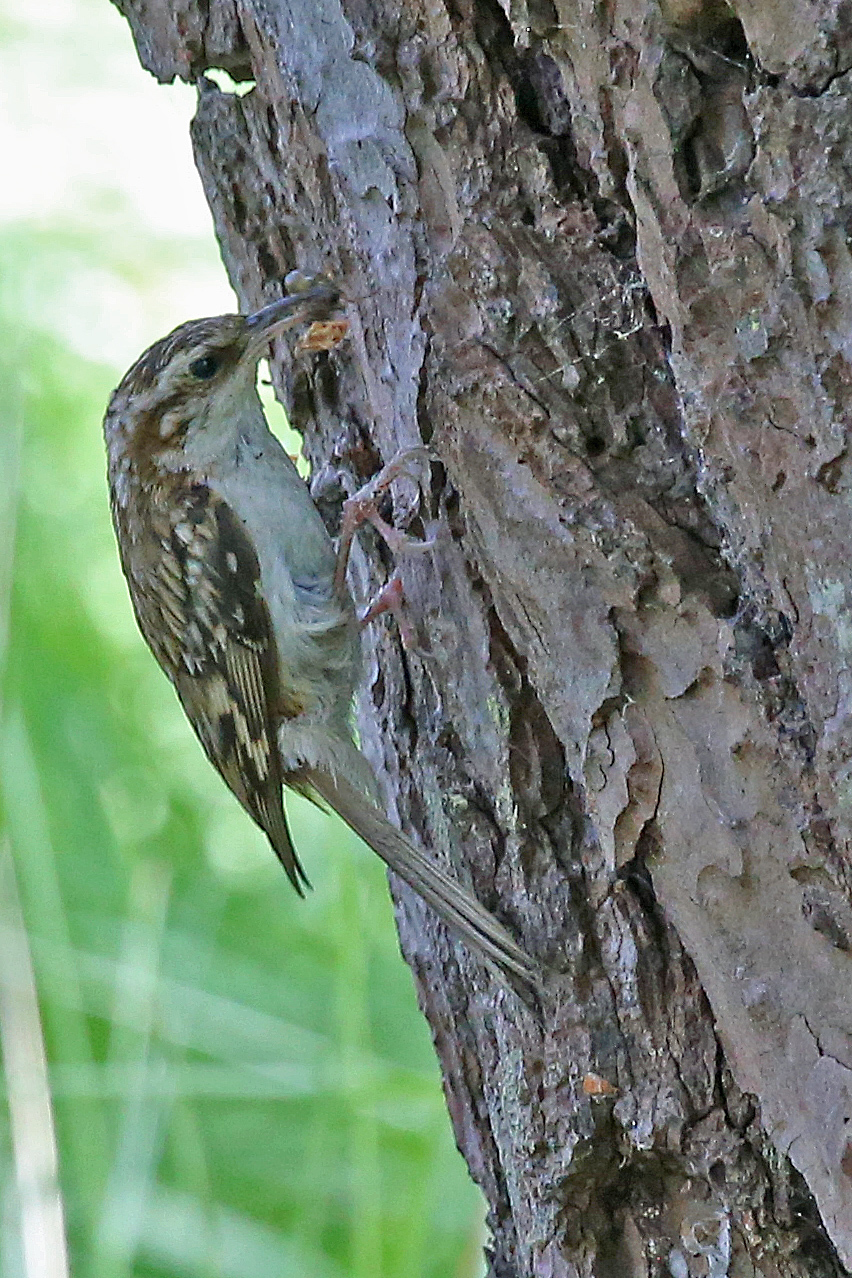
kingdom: Animalia
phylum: Chordata
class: Aves
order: Passeriformes
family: Certhiidae
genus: Certhia
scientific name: Certhia familiaris
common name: Eurasian treecreeper
